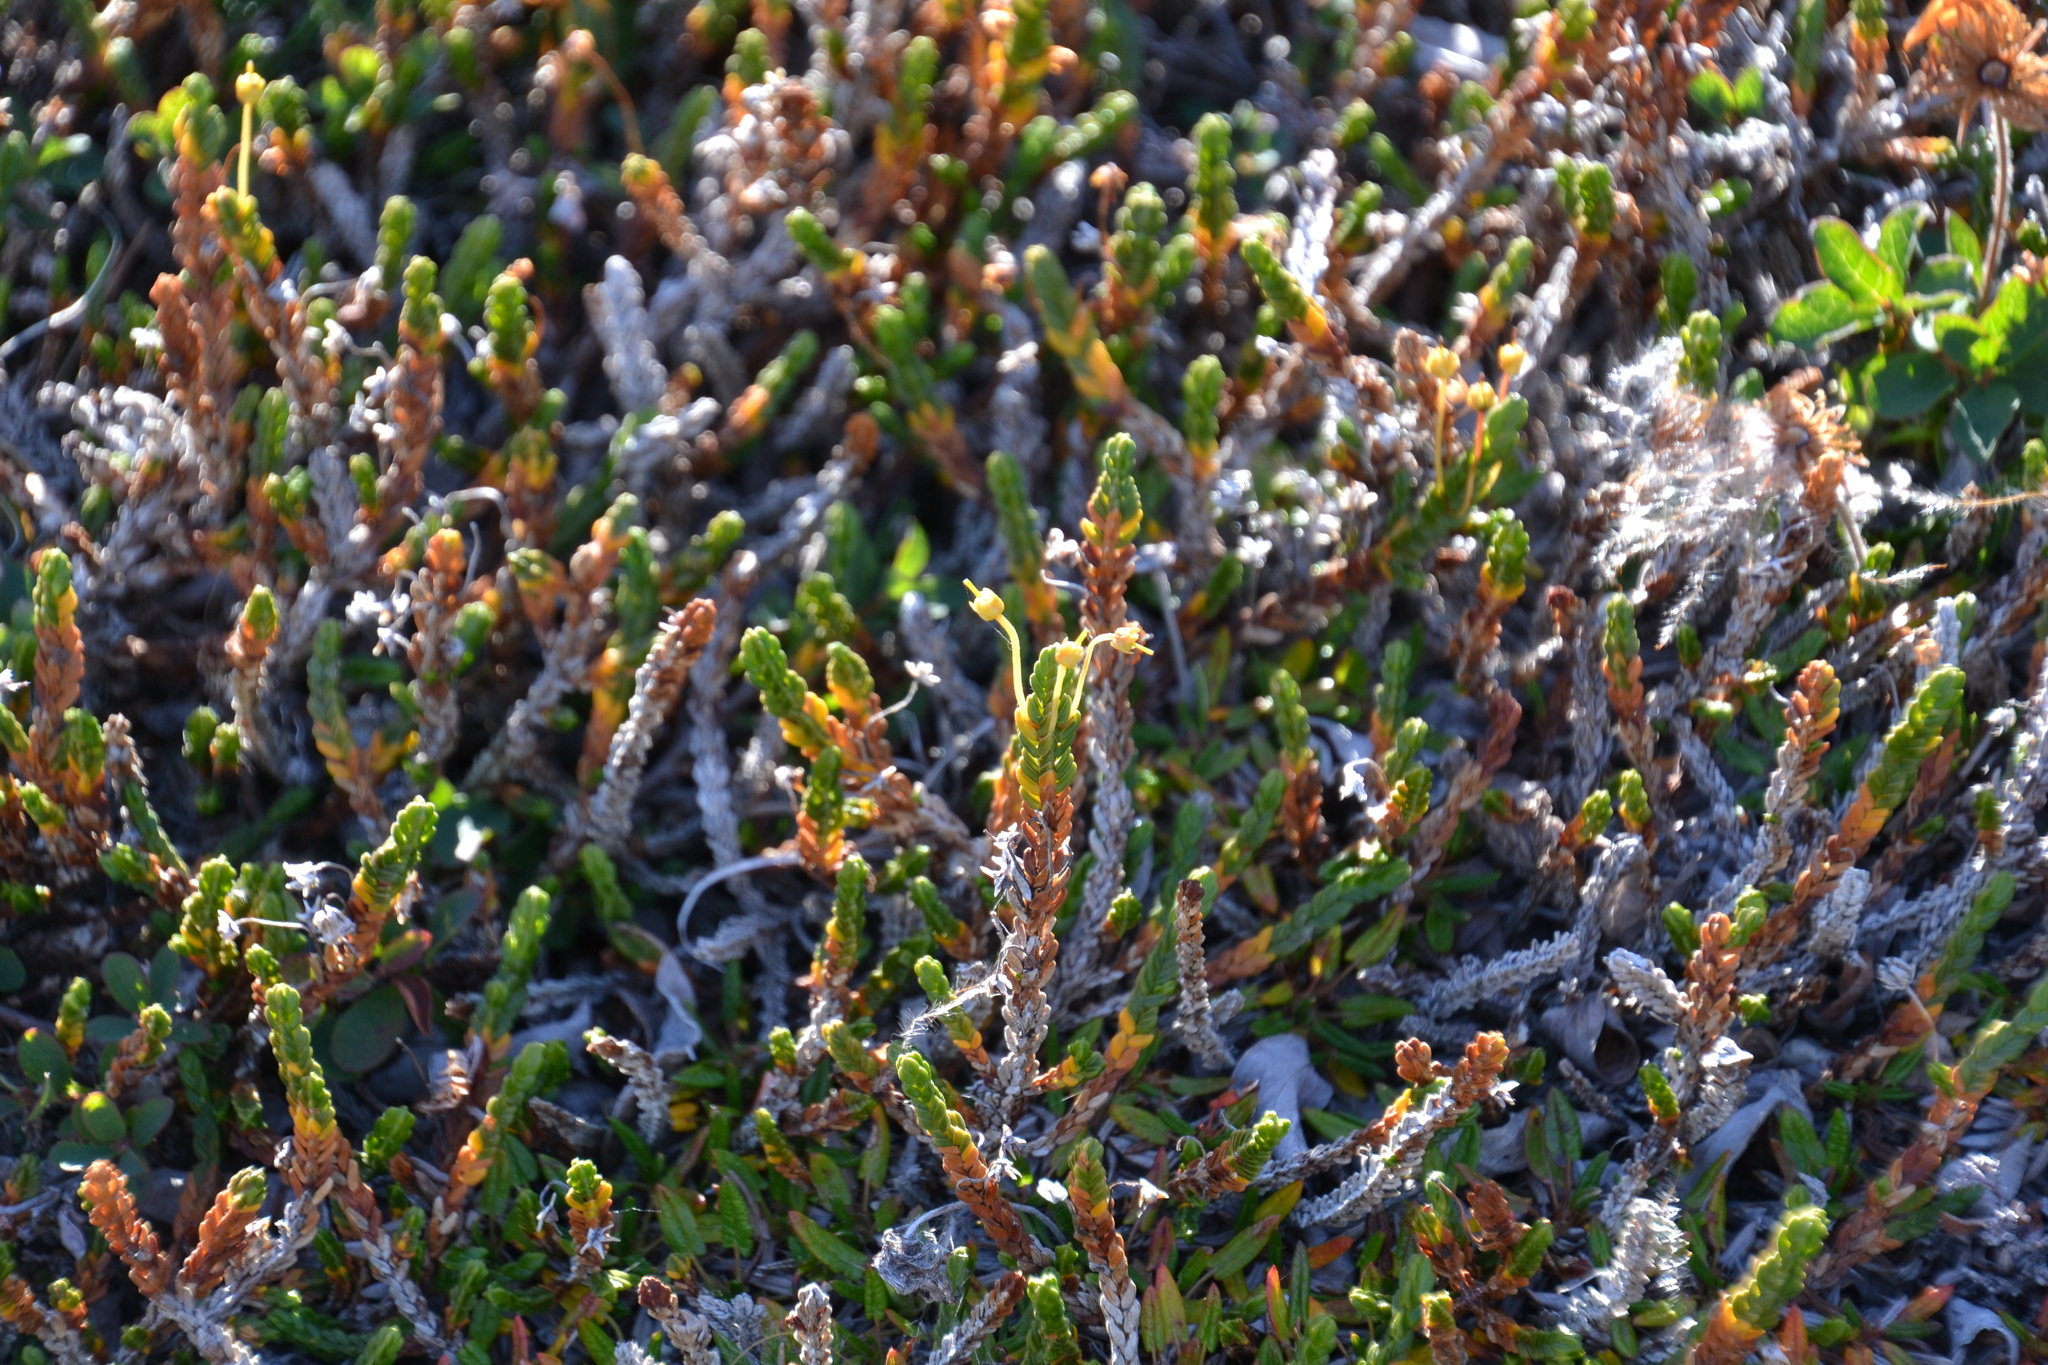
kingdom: Plantae
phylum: Tracheophyta
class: Magnoliopsida
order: Ericales
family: Ericaceae
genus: Cassiope
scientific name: Cassiope tetragona
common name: Arctic bell heather
